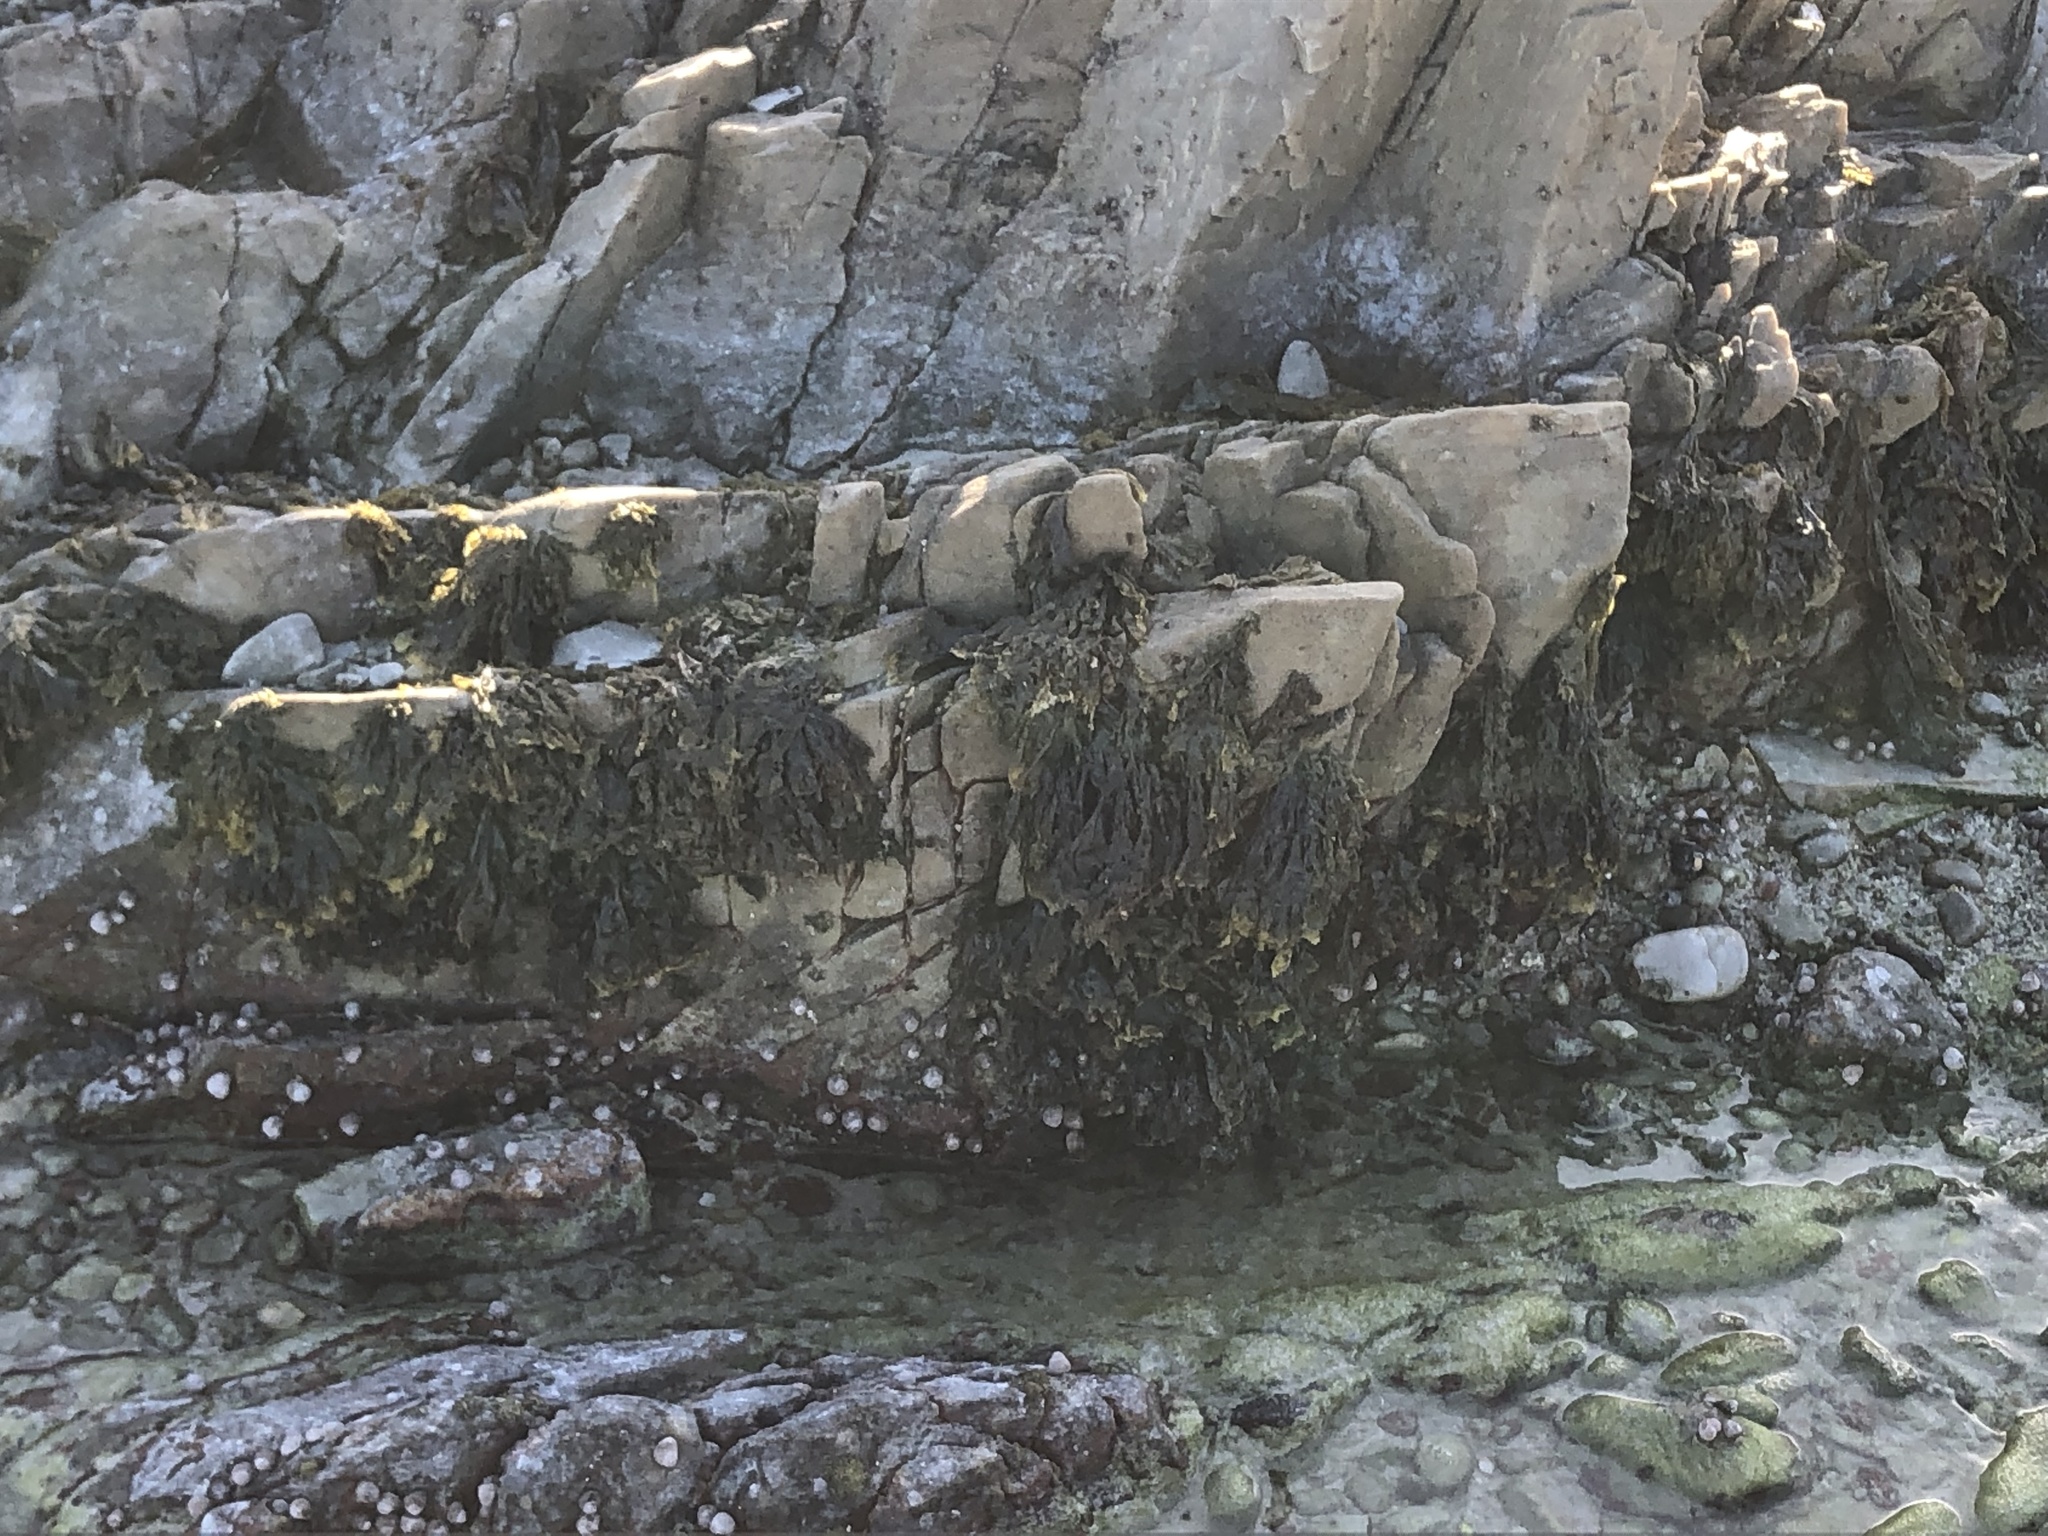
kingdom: Plantae
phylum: Rhodophyta
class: Bangiophyceae
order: Bangiales
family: Bangiaceae
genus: Porphyra
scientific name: Porphyra capensis
